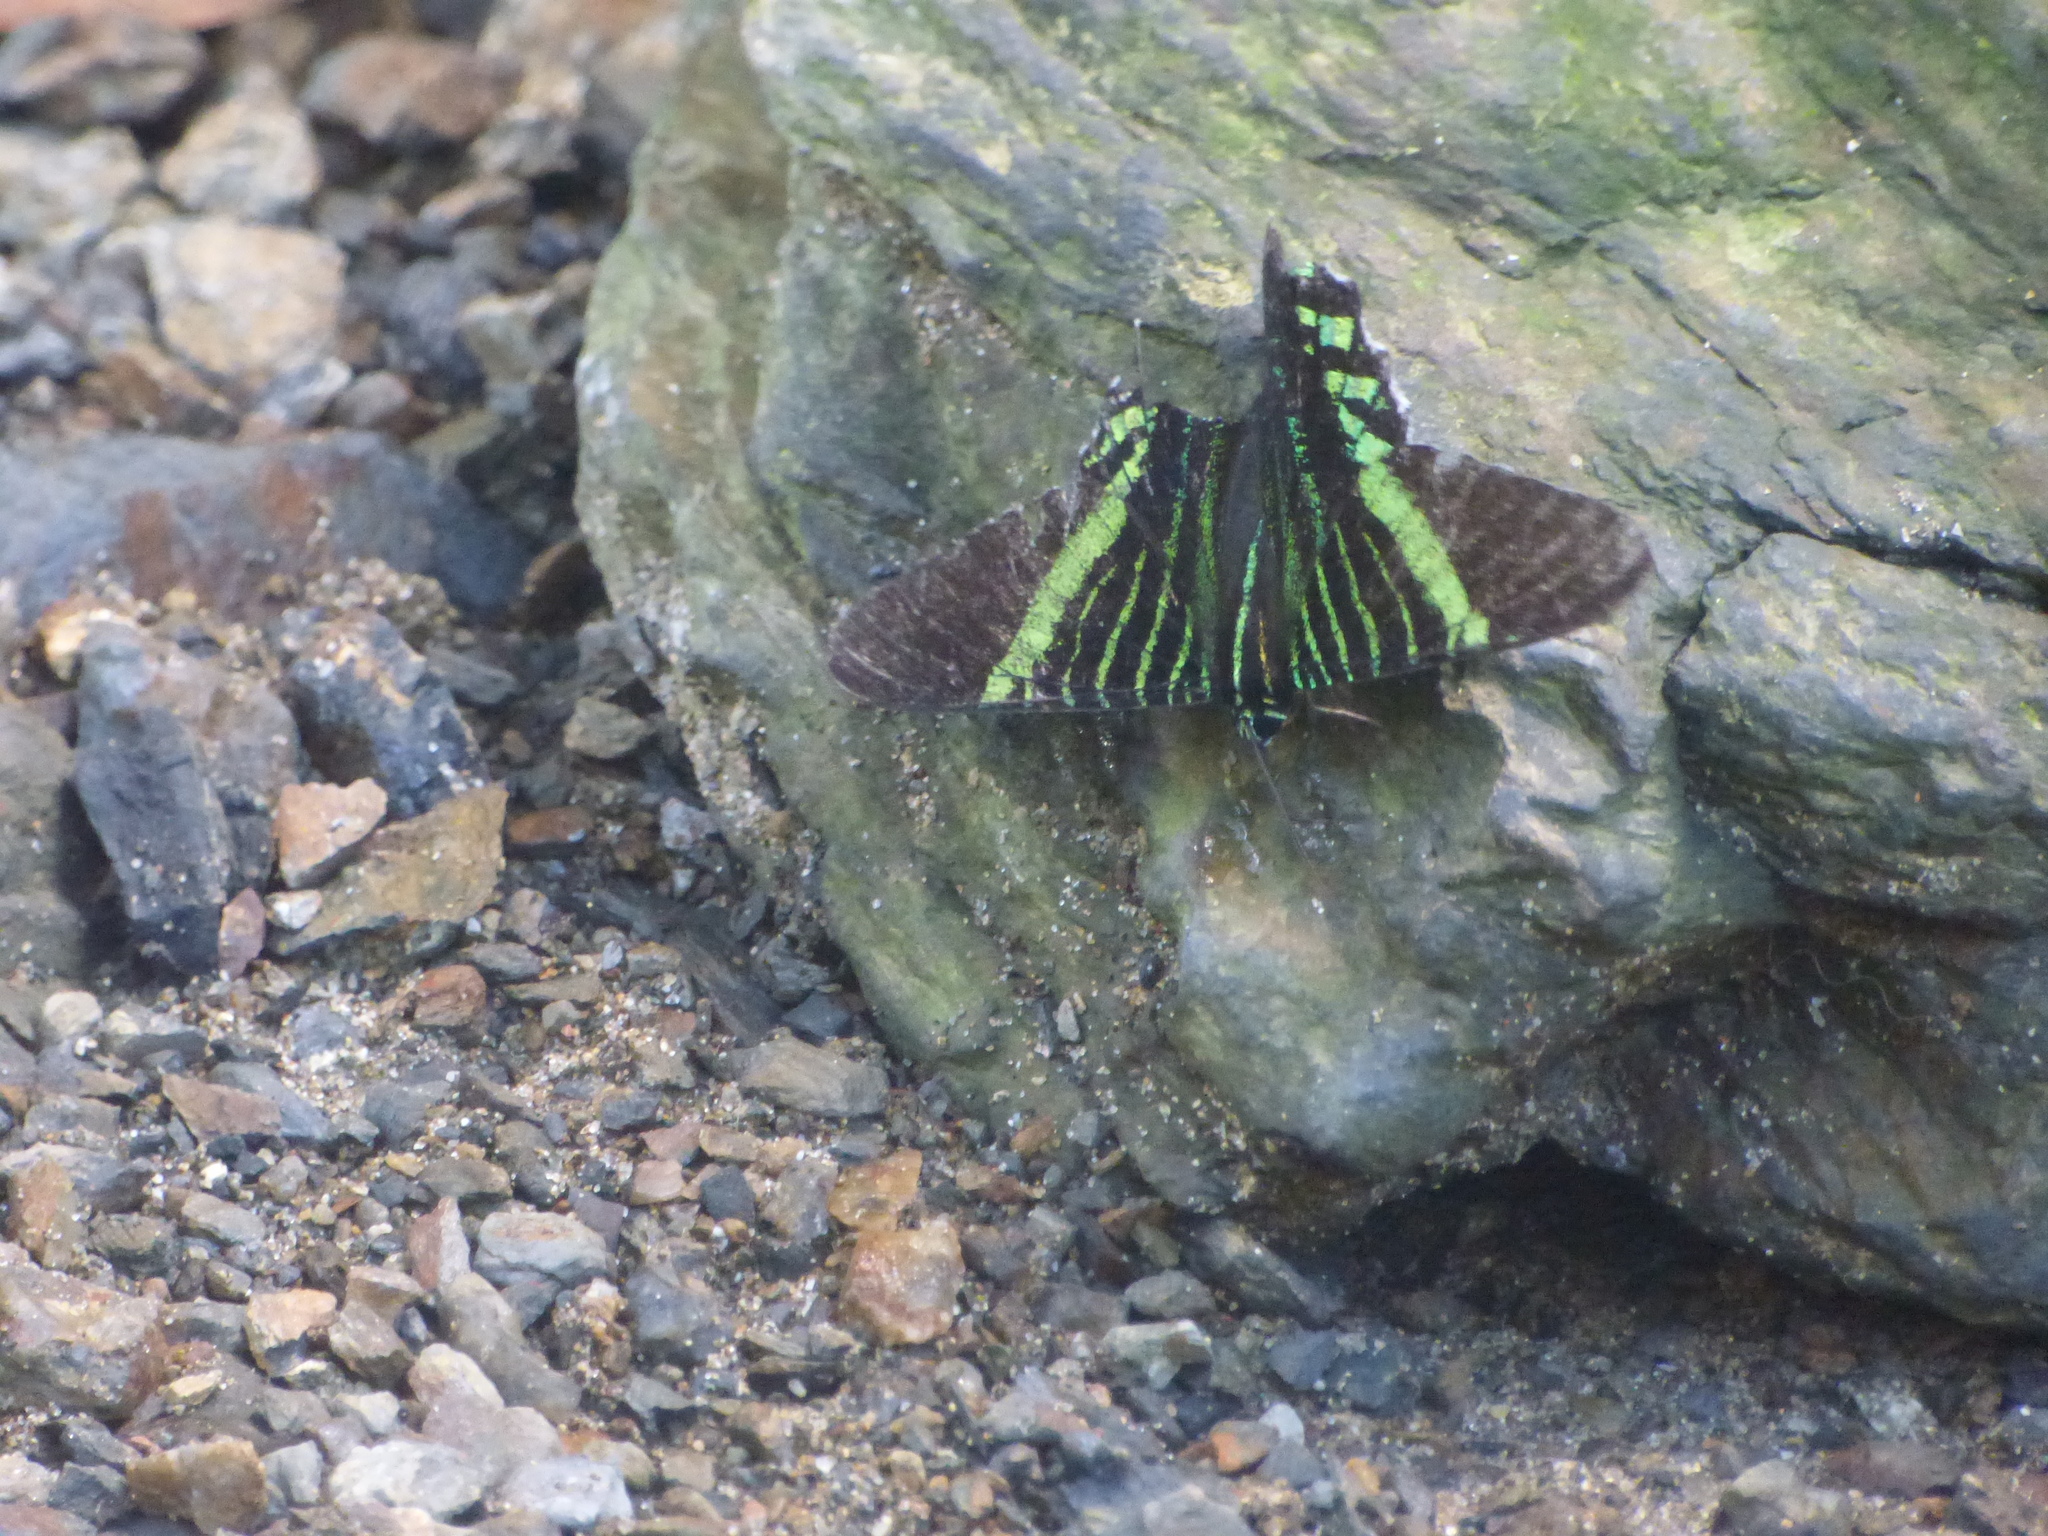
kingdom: Animalia
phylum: Arthropoda
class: Insecta
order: Lepidoptera
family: Uraniidae
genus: Urania
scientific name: Urania fulgens
